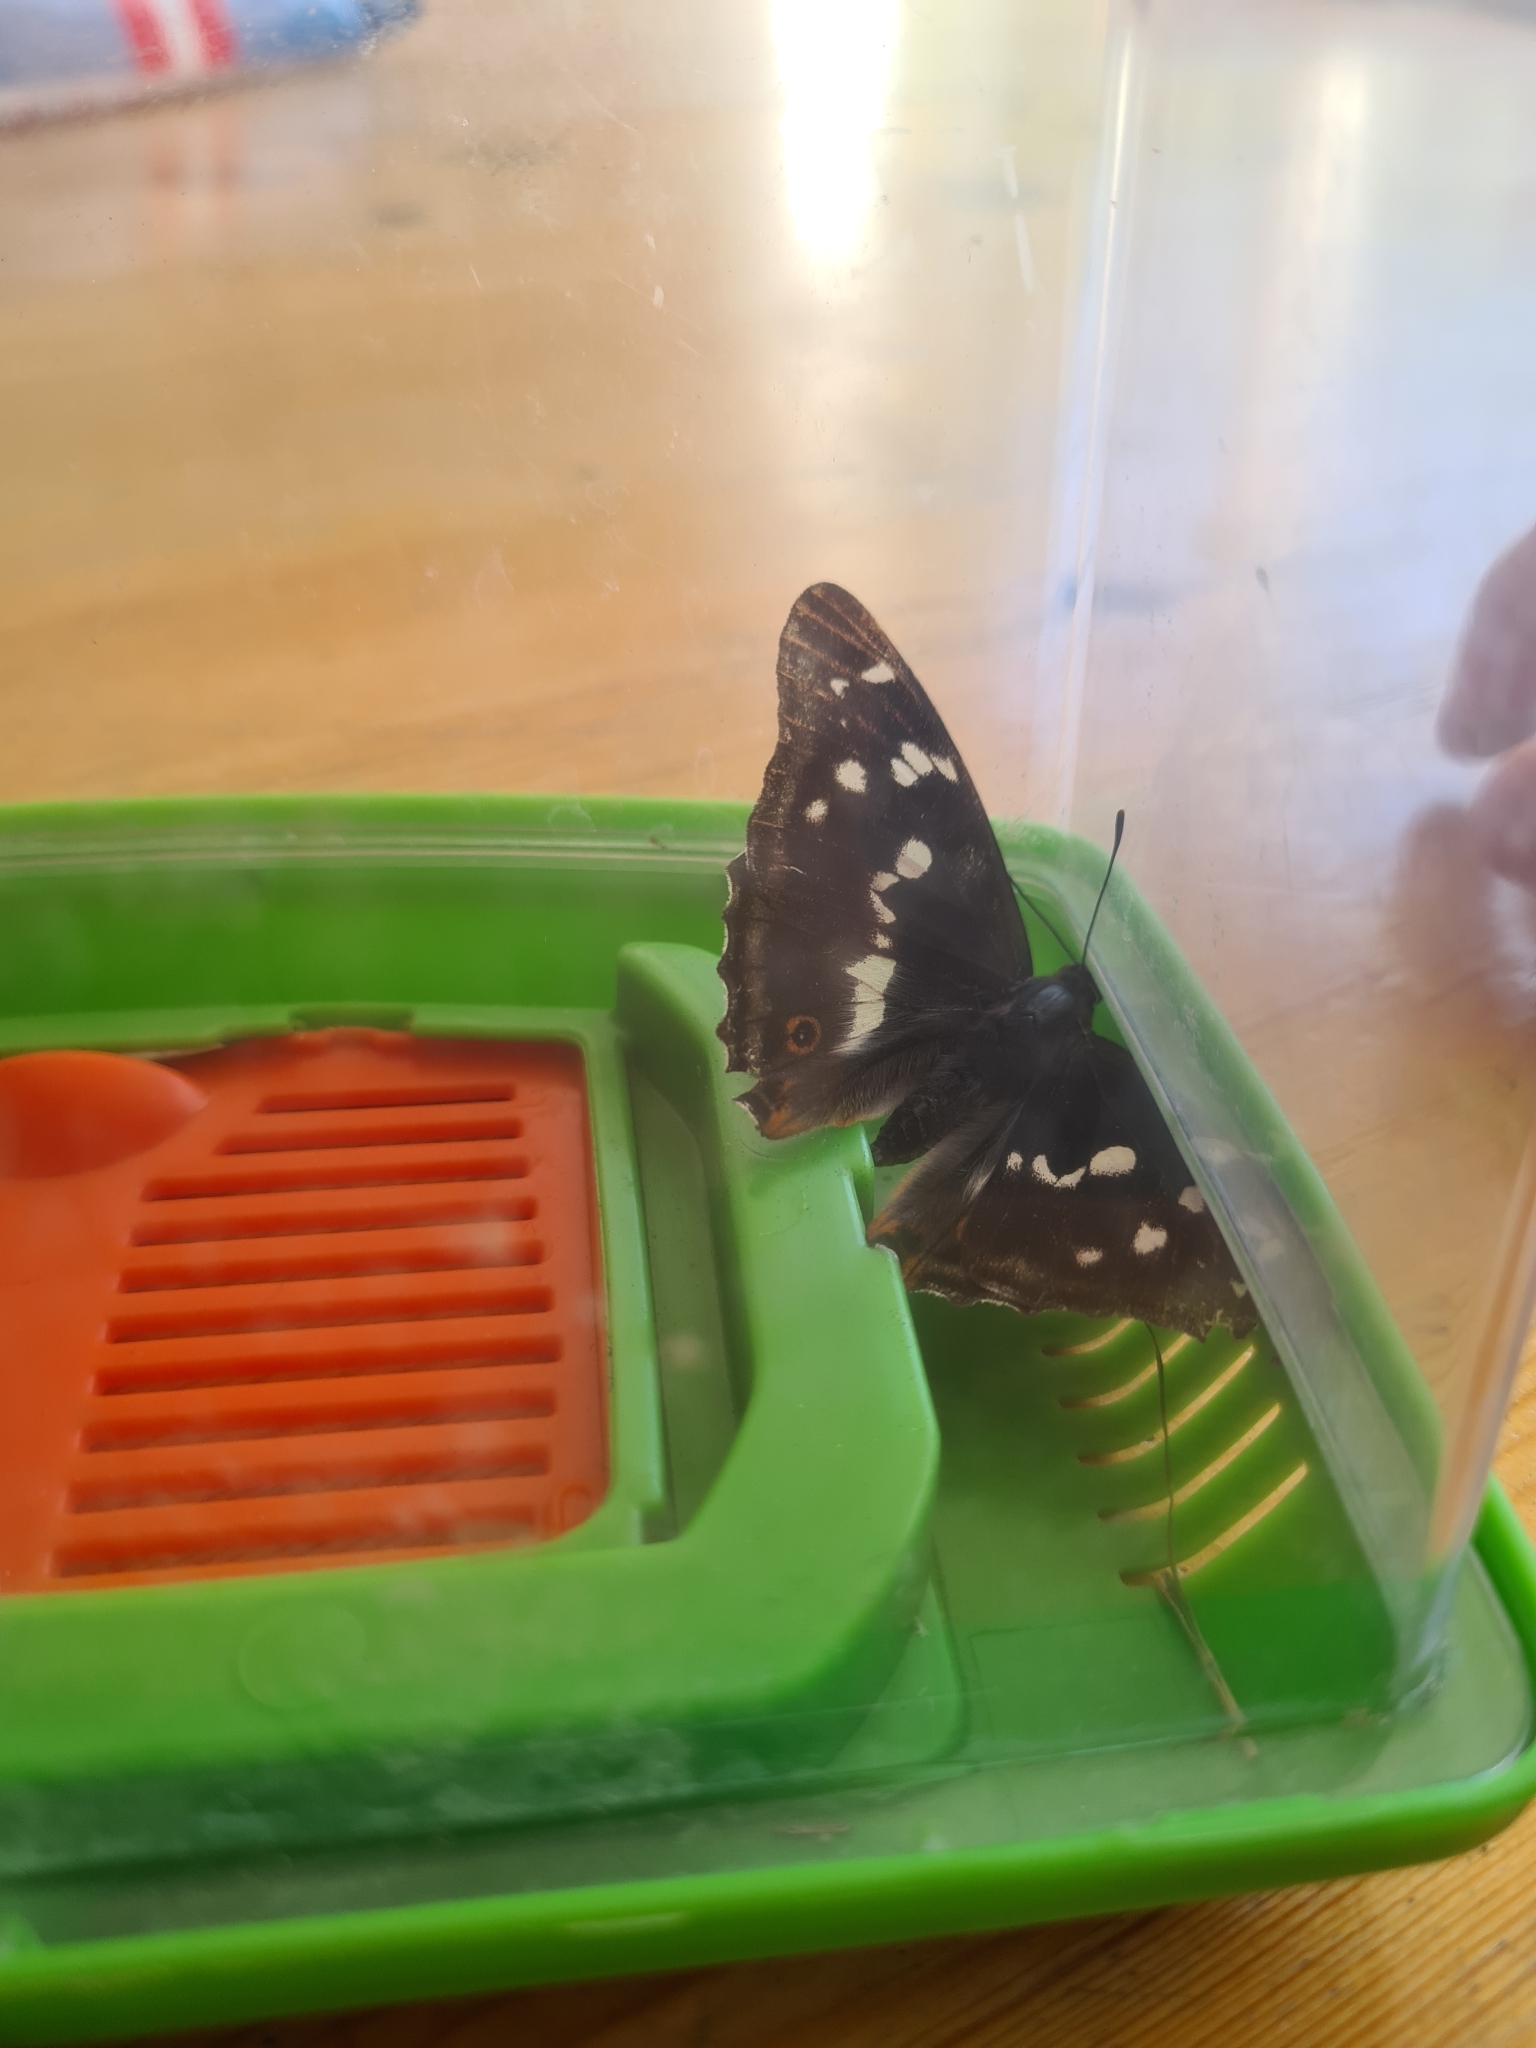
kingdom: Animalia
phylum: Arthropoda
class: Insecta
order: Lepidoptera
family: Nymphalidae
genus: Apatura
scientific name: Apatura iris
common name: Purple emperor
